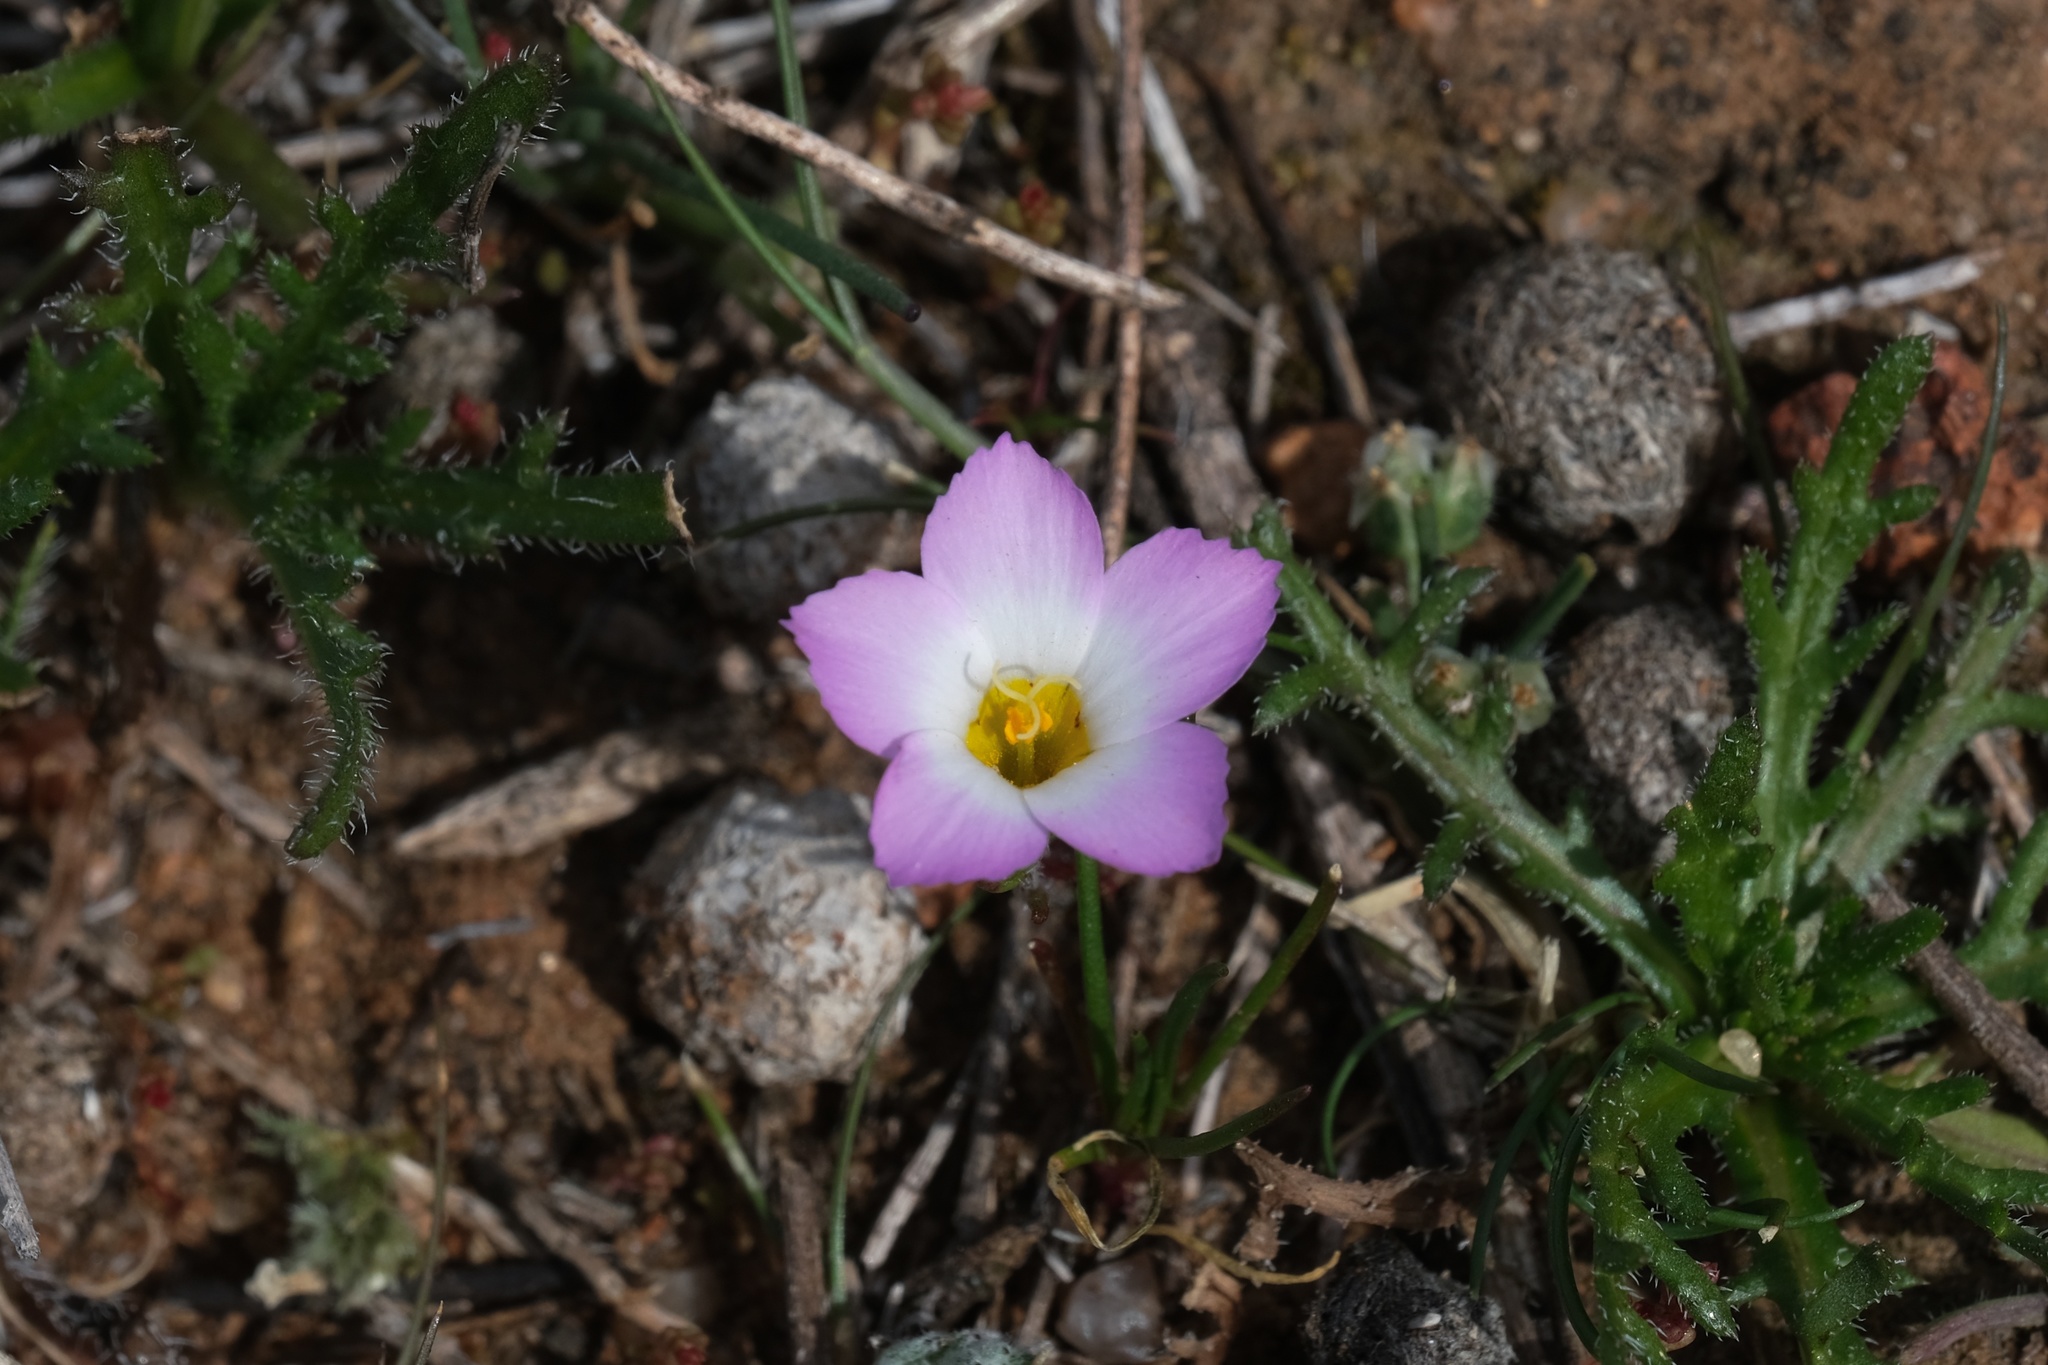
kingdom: Plantae
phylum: Tracheophyta
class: Magnoliopsida
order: Ericales
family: Polemoniaceae
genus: Linanthus
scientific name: Linanthus dianthiflorus
